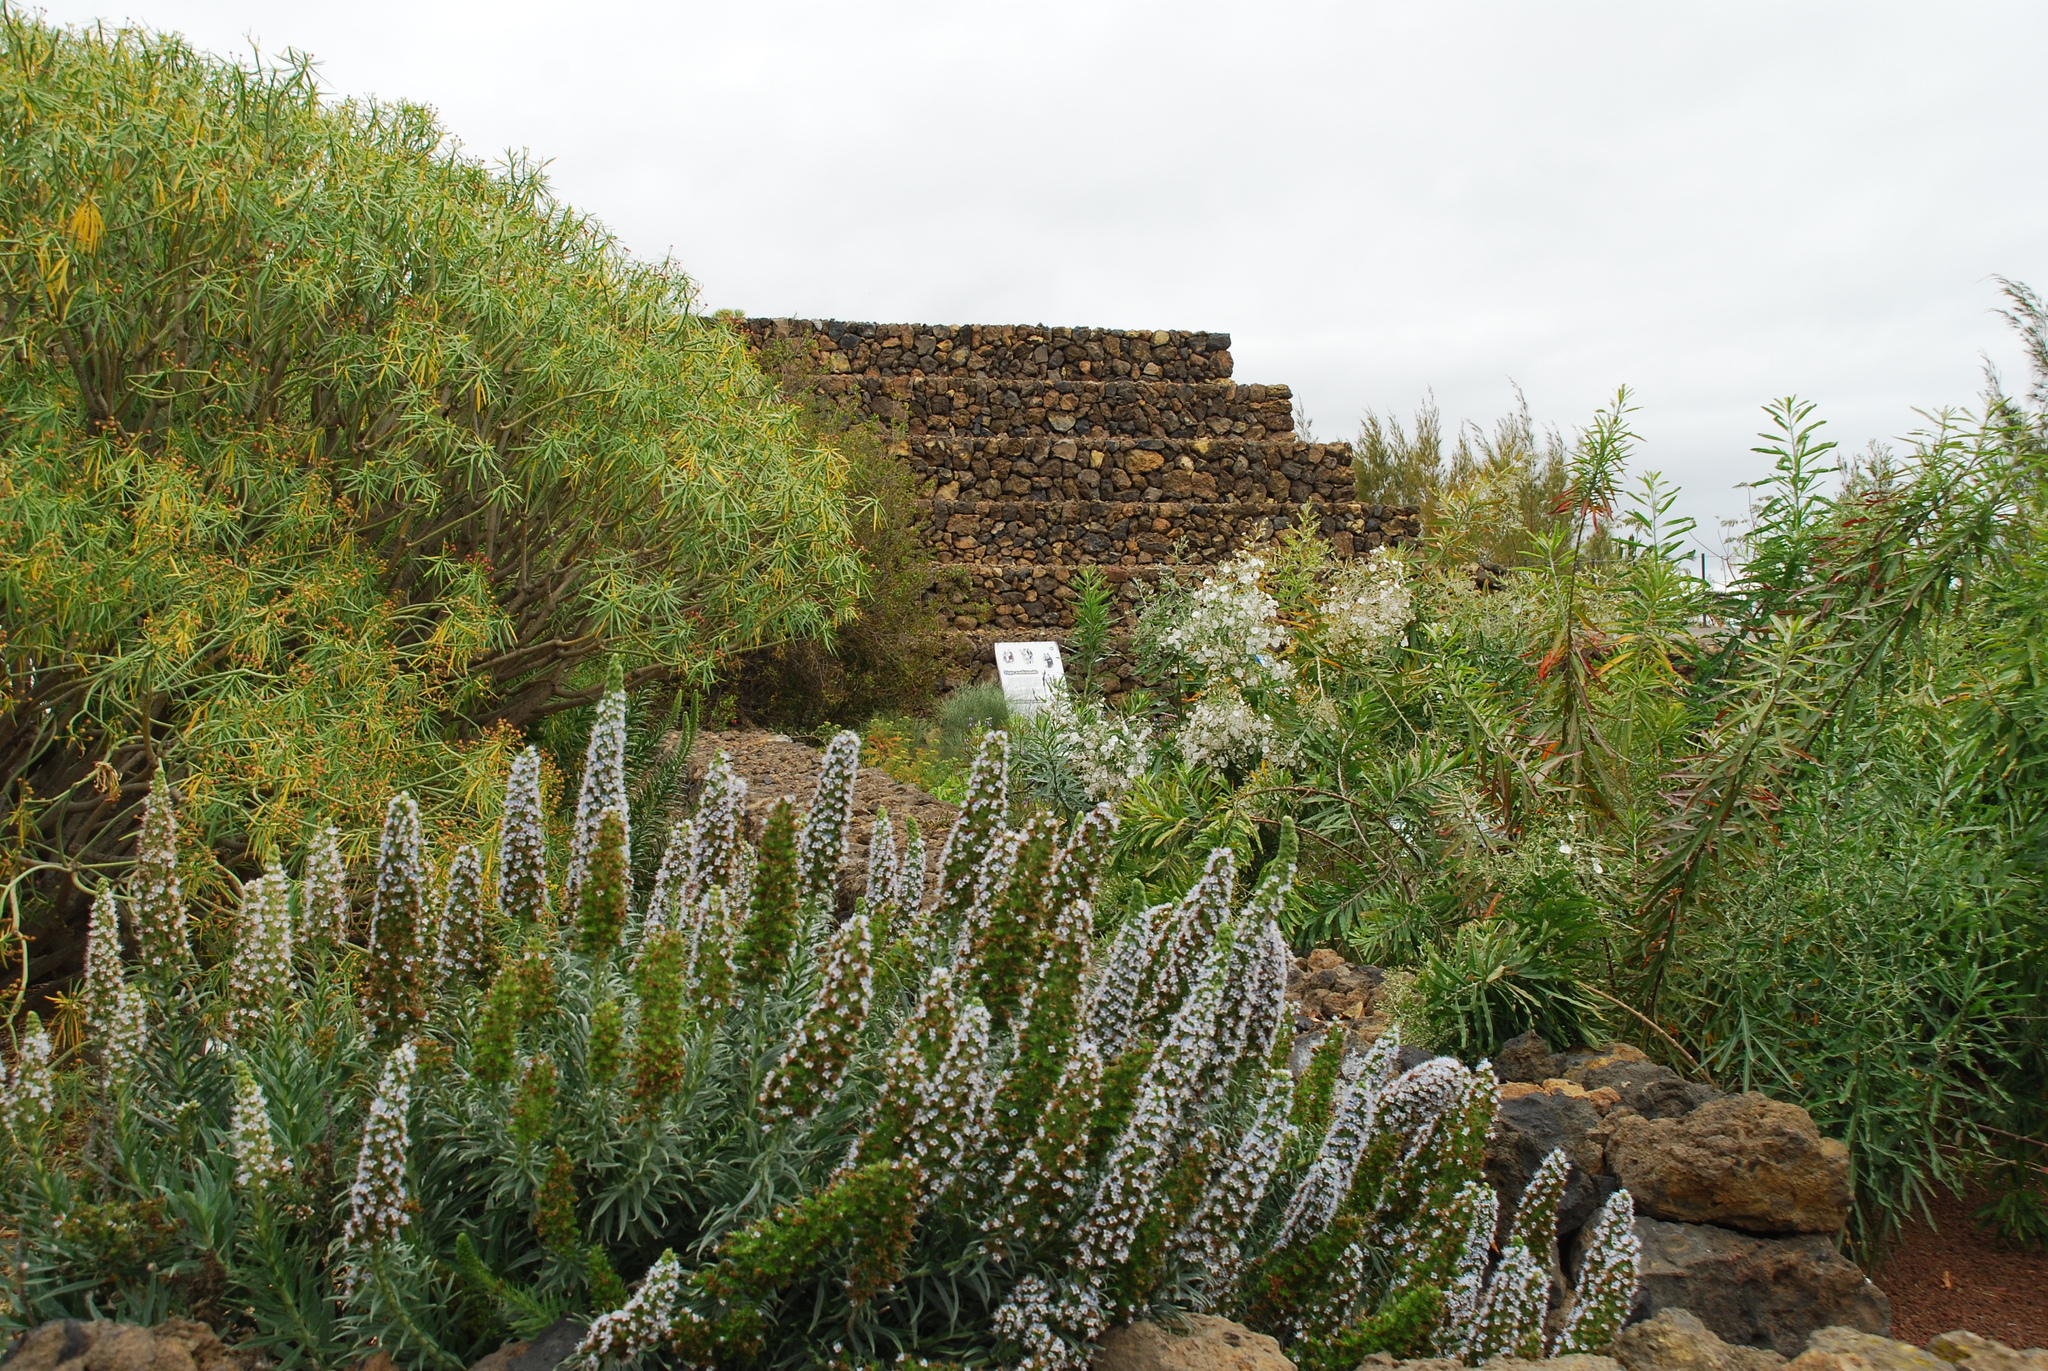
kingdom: Plantae
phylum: Tracheophyta
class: Magnoliopsida
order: Boraginales
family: Boraginaceae
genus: Echium
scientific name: Echium virescens
